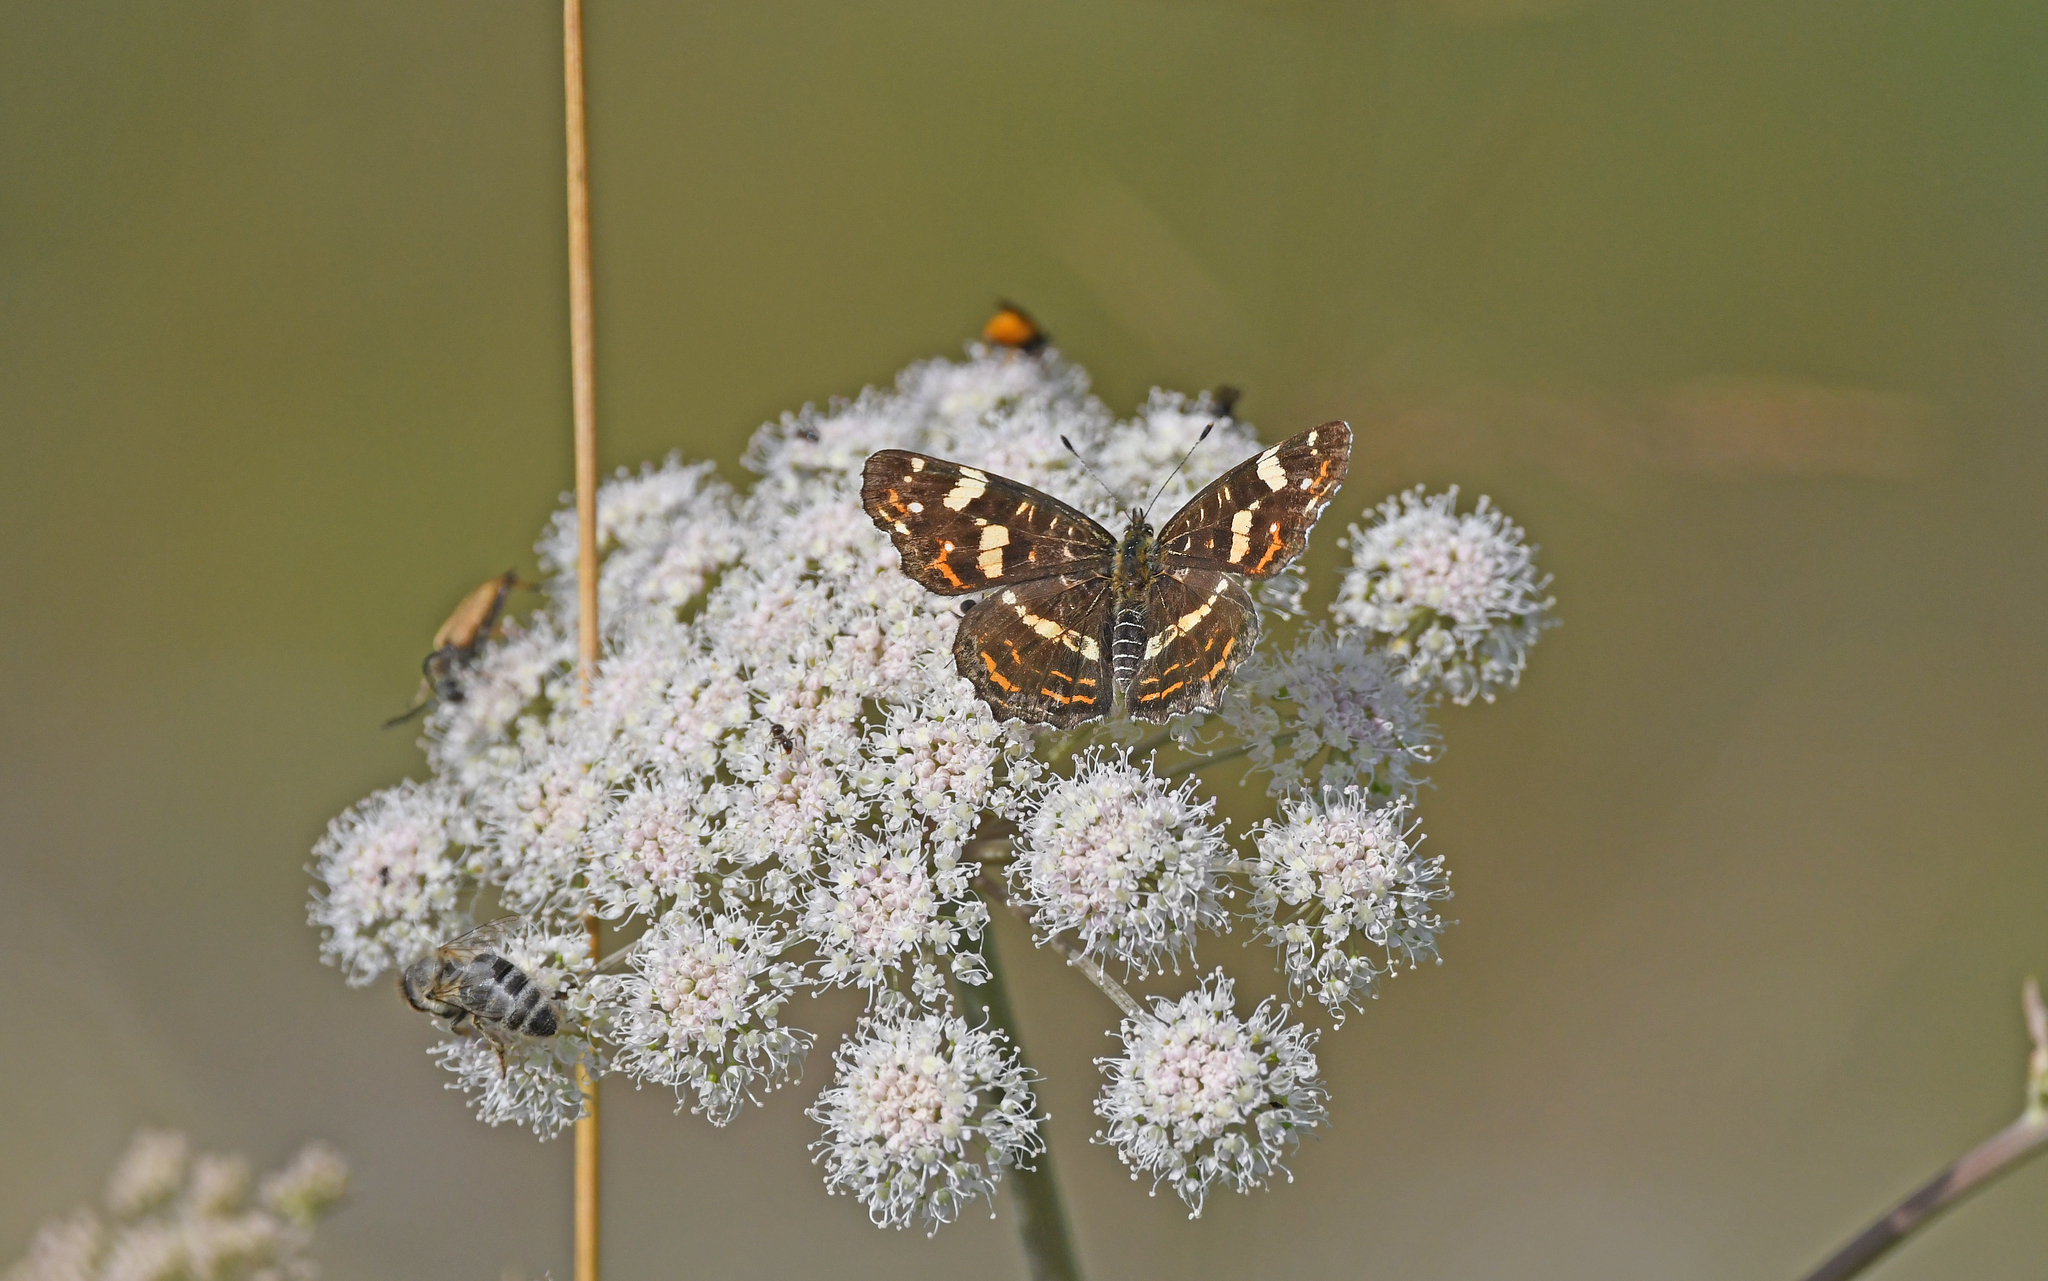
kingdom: Animalia
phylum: Arthropoda
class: Insecta
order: Lepidoptera
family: Nymphalidae
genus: Araschnia
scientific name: Araschnia levana
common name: Map butterfly
